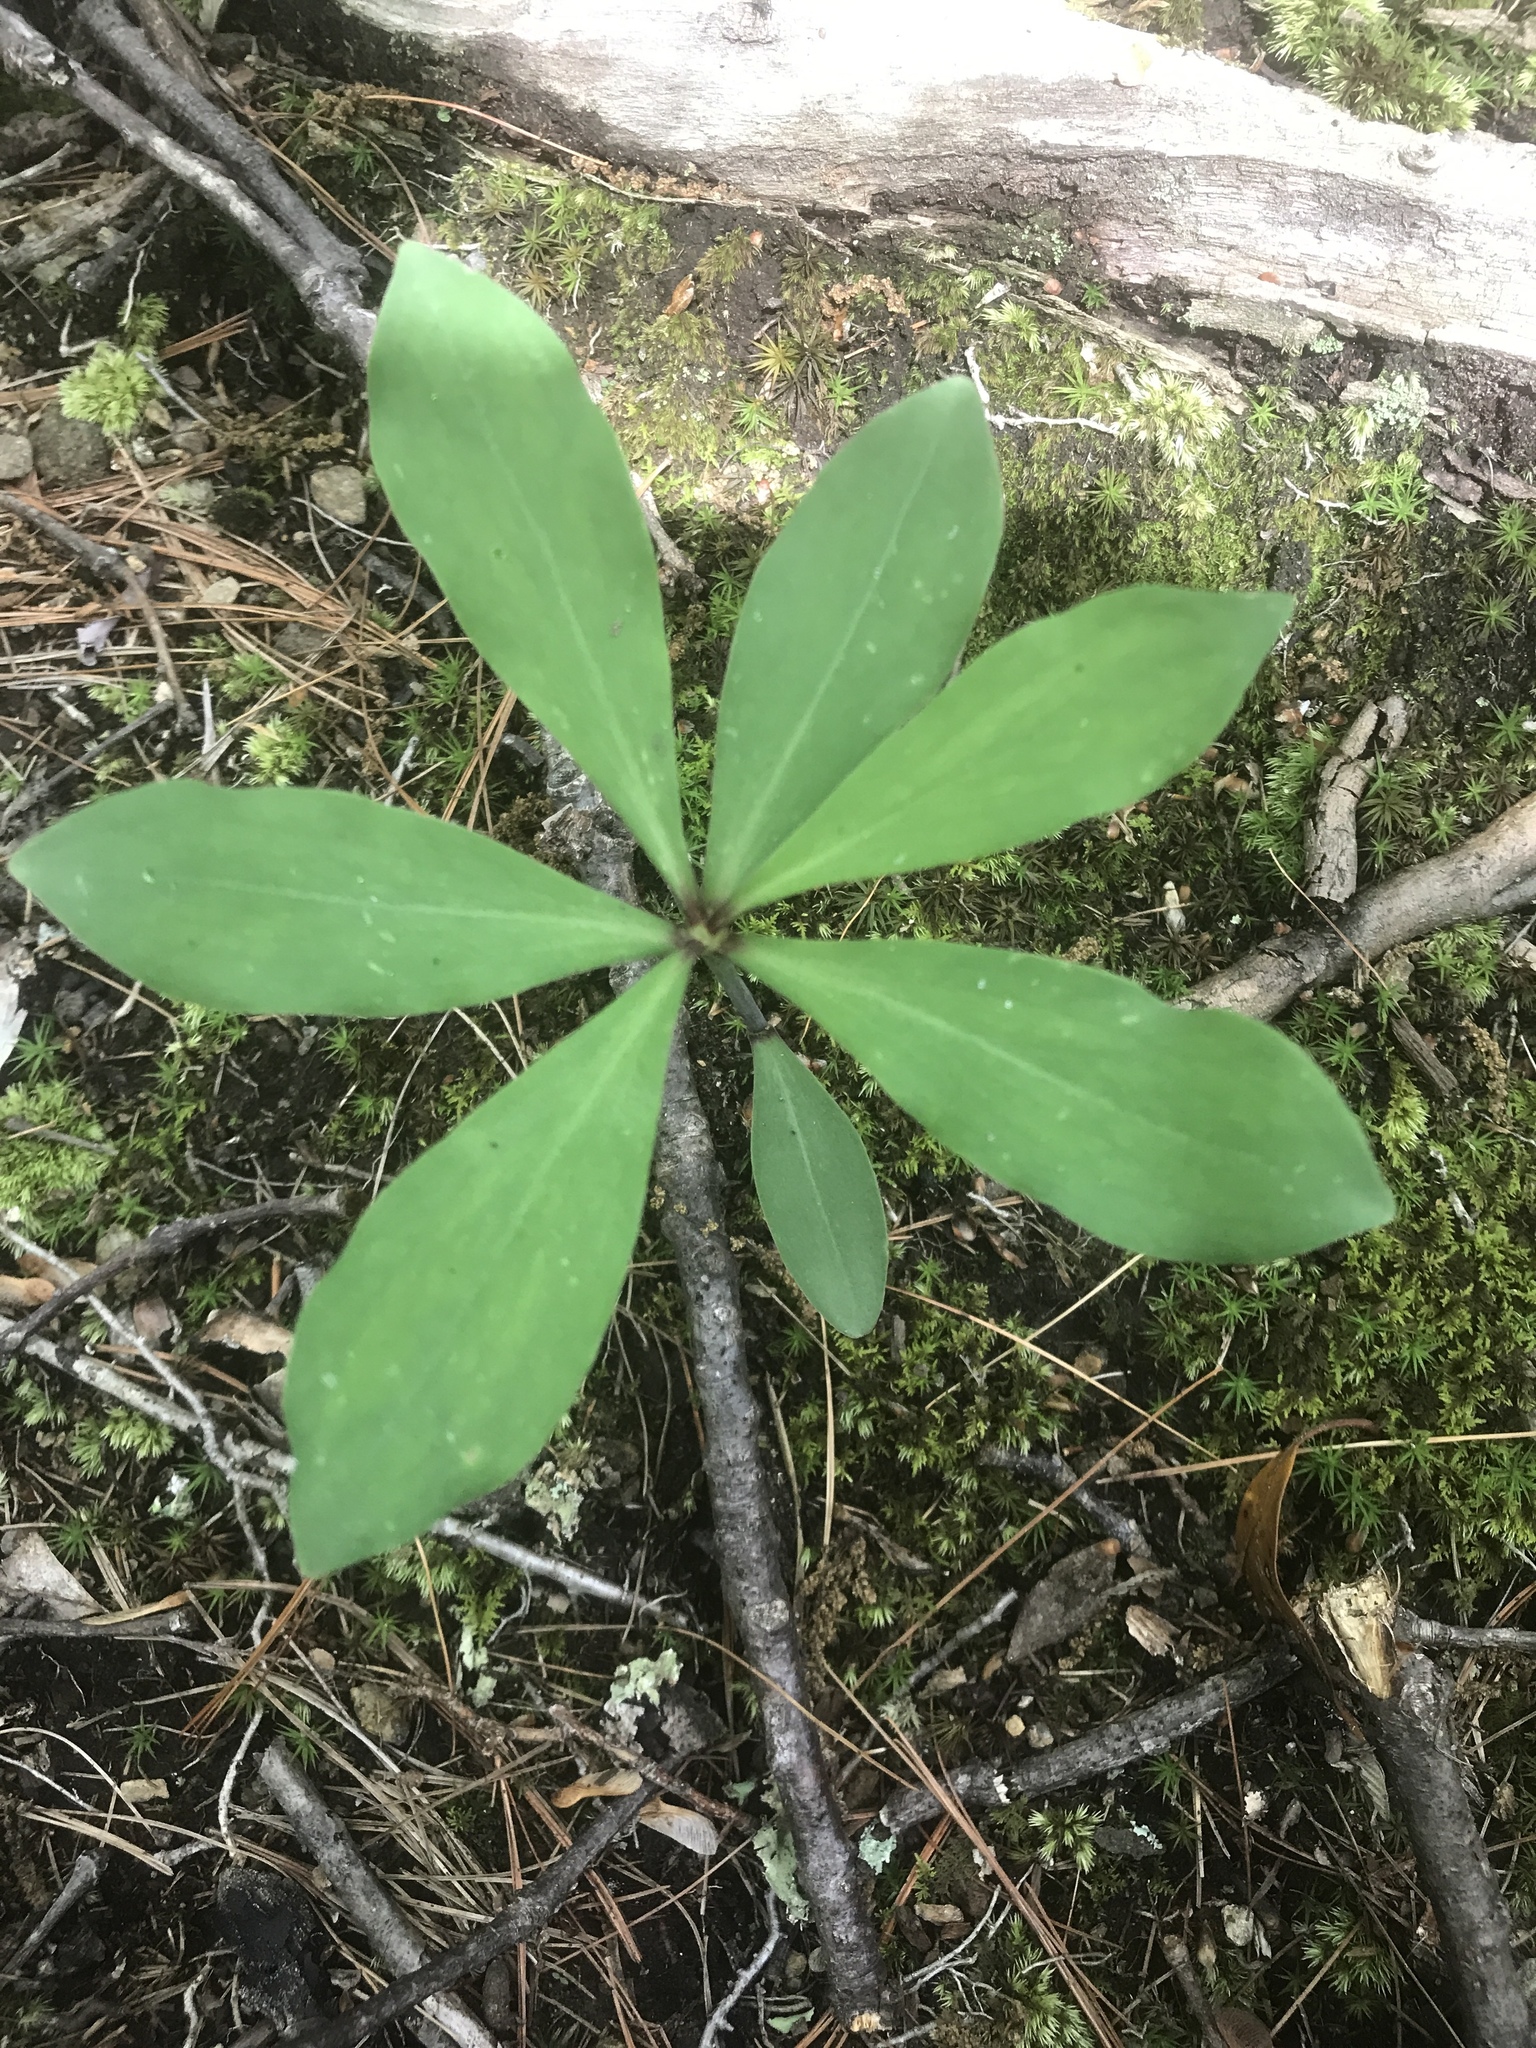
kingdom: Plantae
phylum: Tracheophyta
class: Liliopsida
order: Liliales
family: Liliaceae
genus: Lilium
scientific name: Lilium michauxii
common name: Carolina lily
